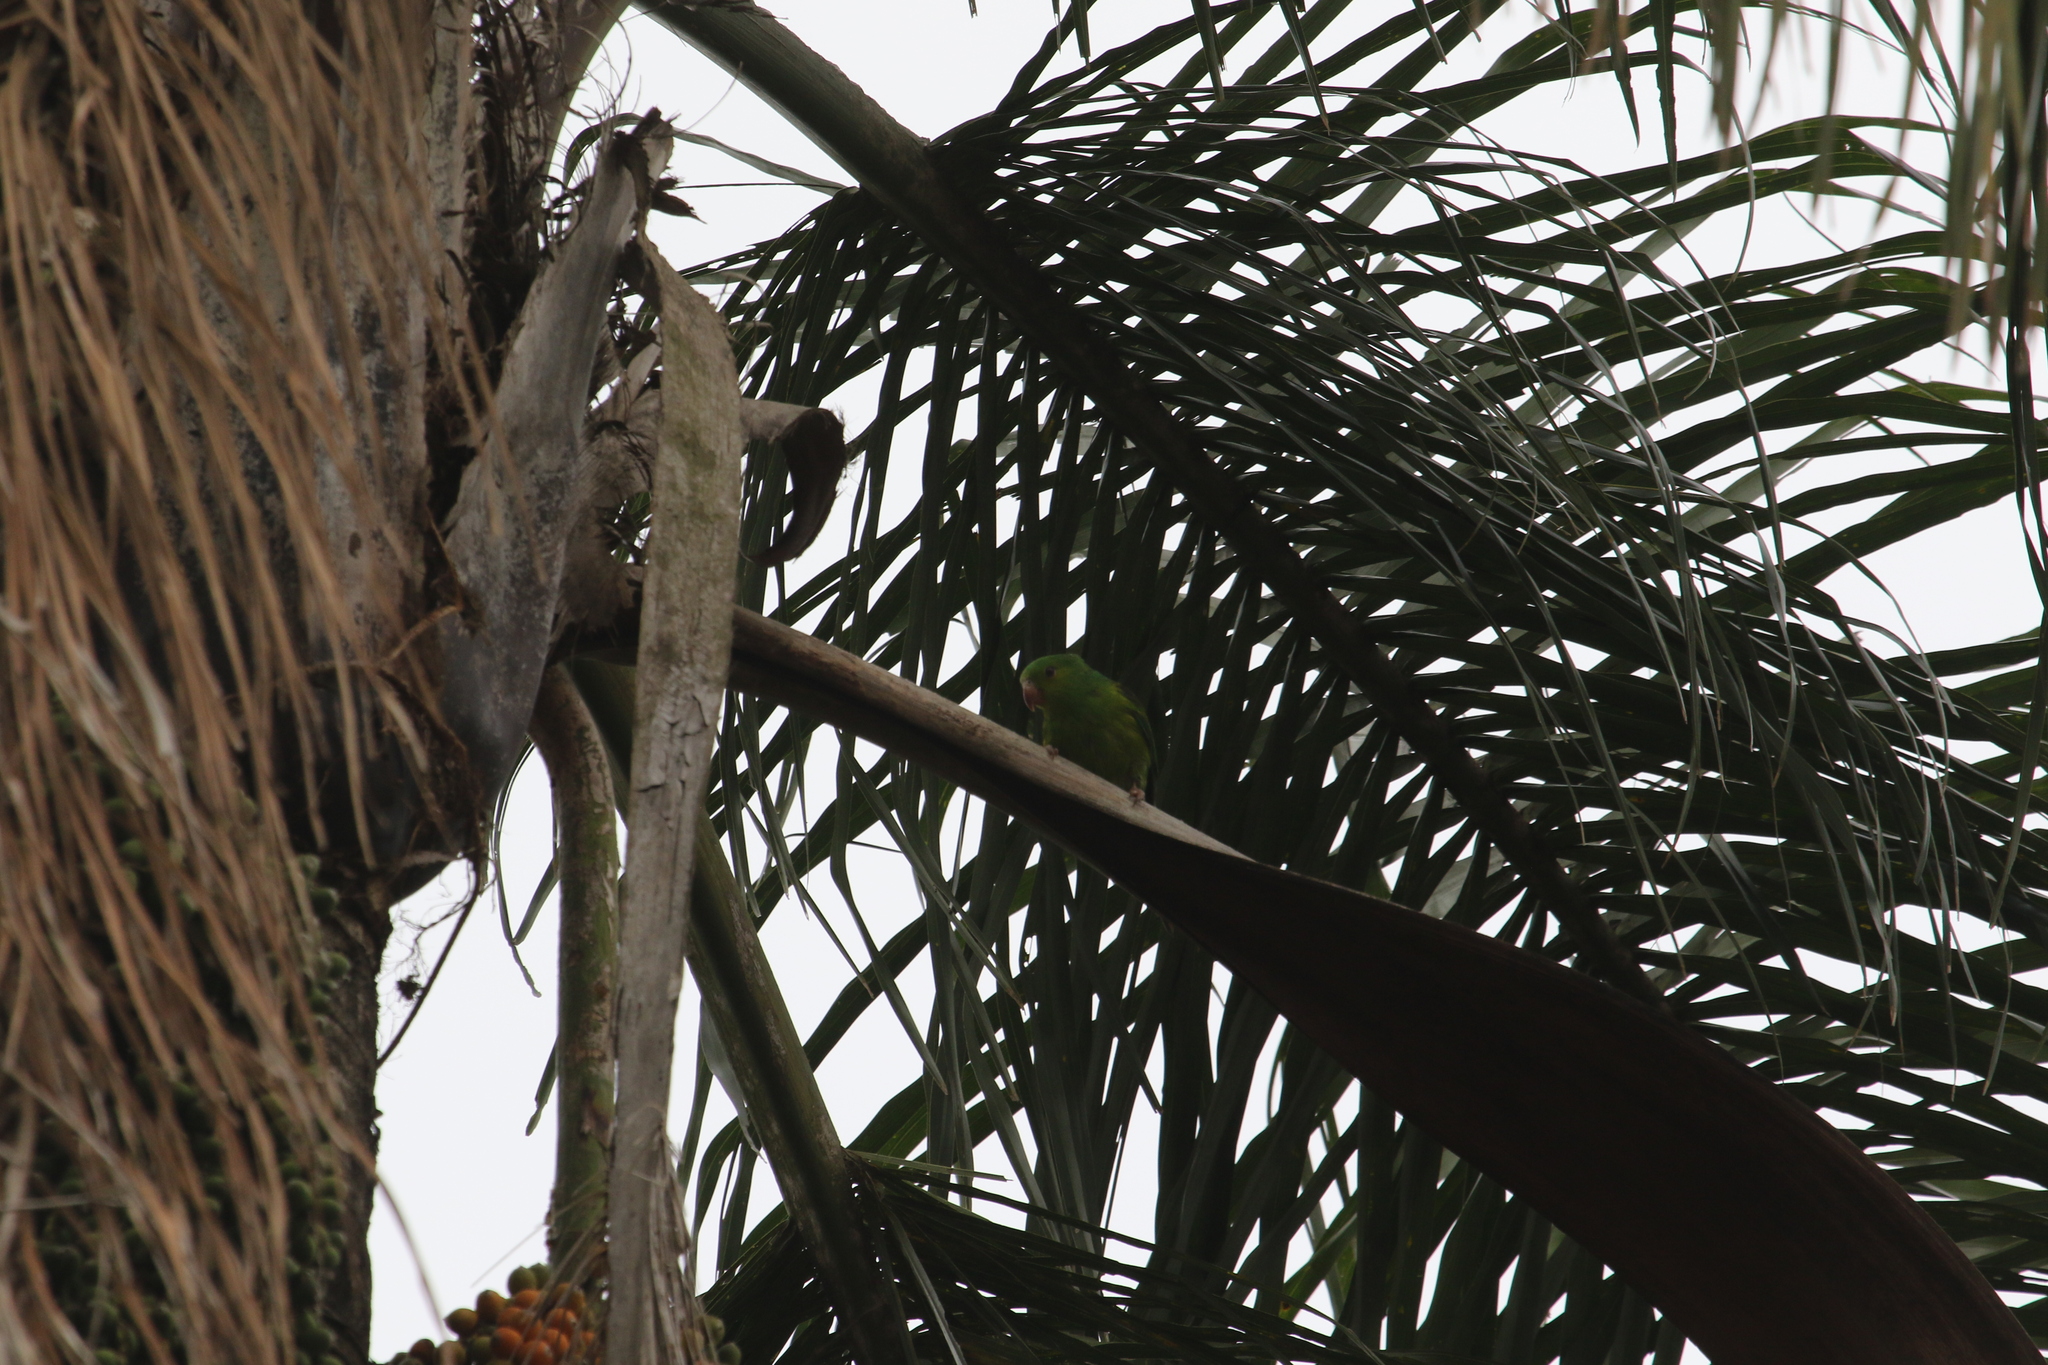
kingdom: Animalia
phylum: Chordata
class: Aves
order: Psittaciformes
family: Psittacidae
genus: Brotogeris
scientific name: Brotogeris tirica
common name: Plain parakeet
